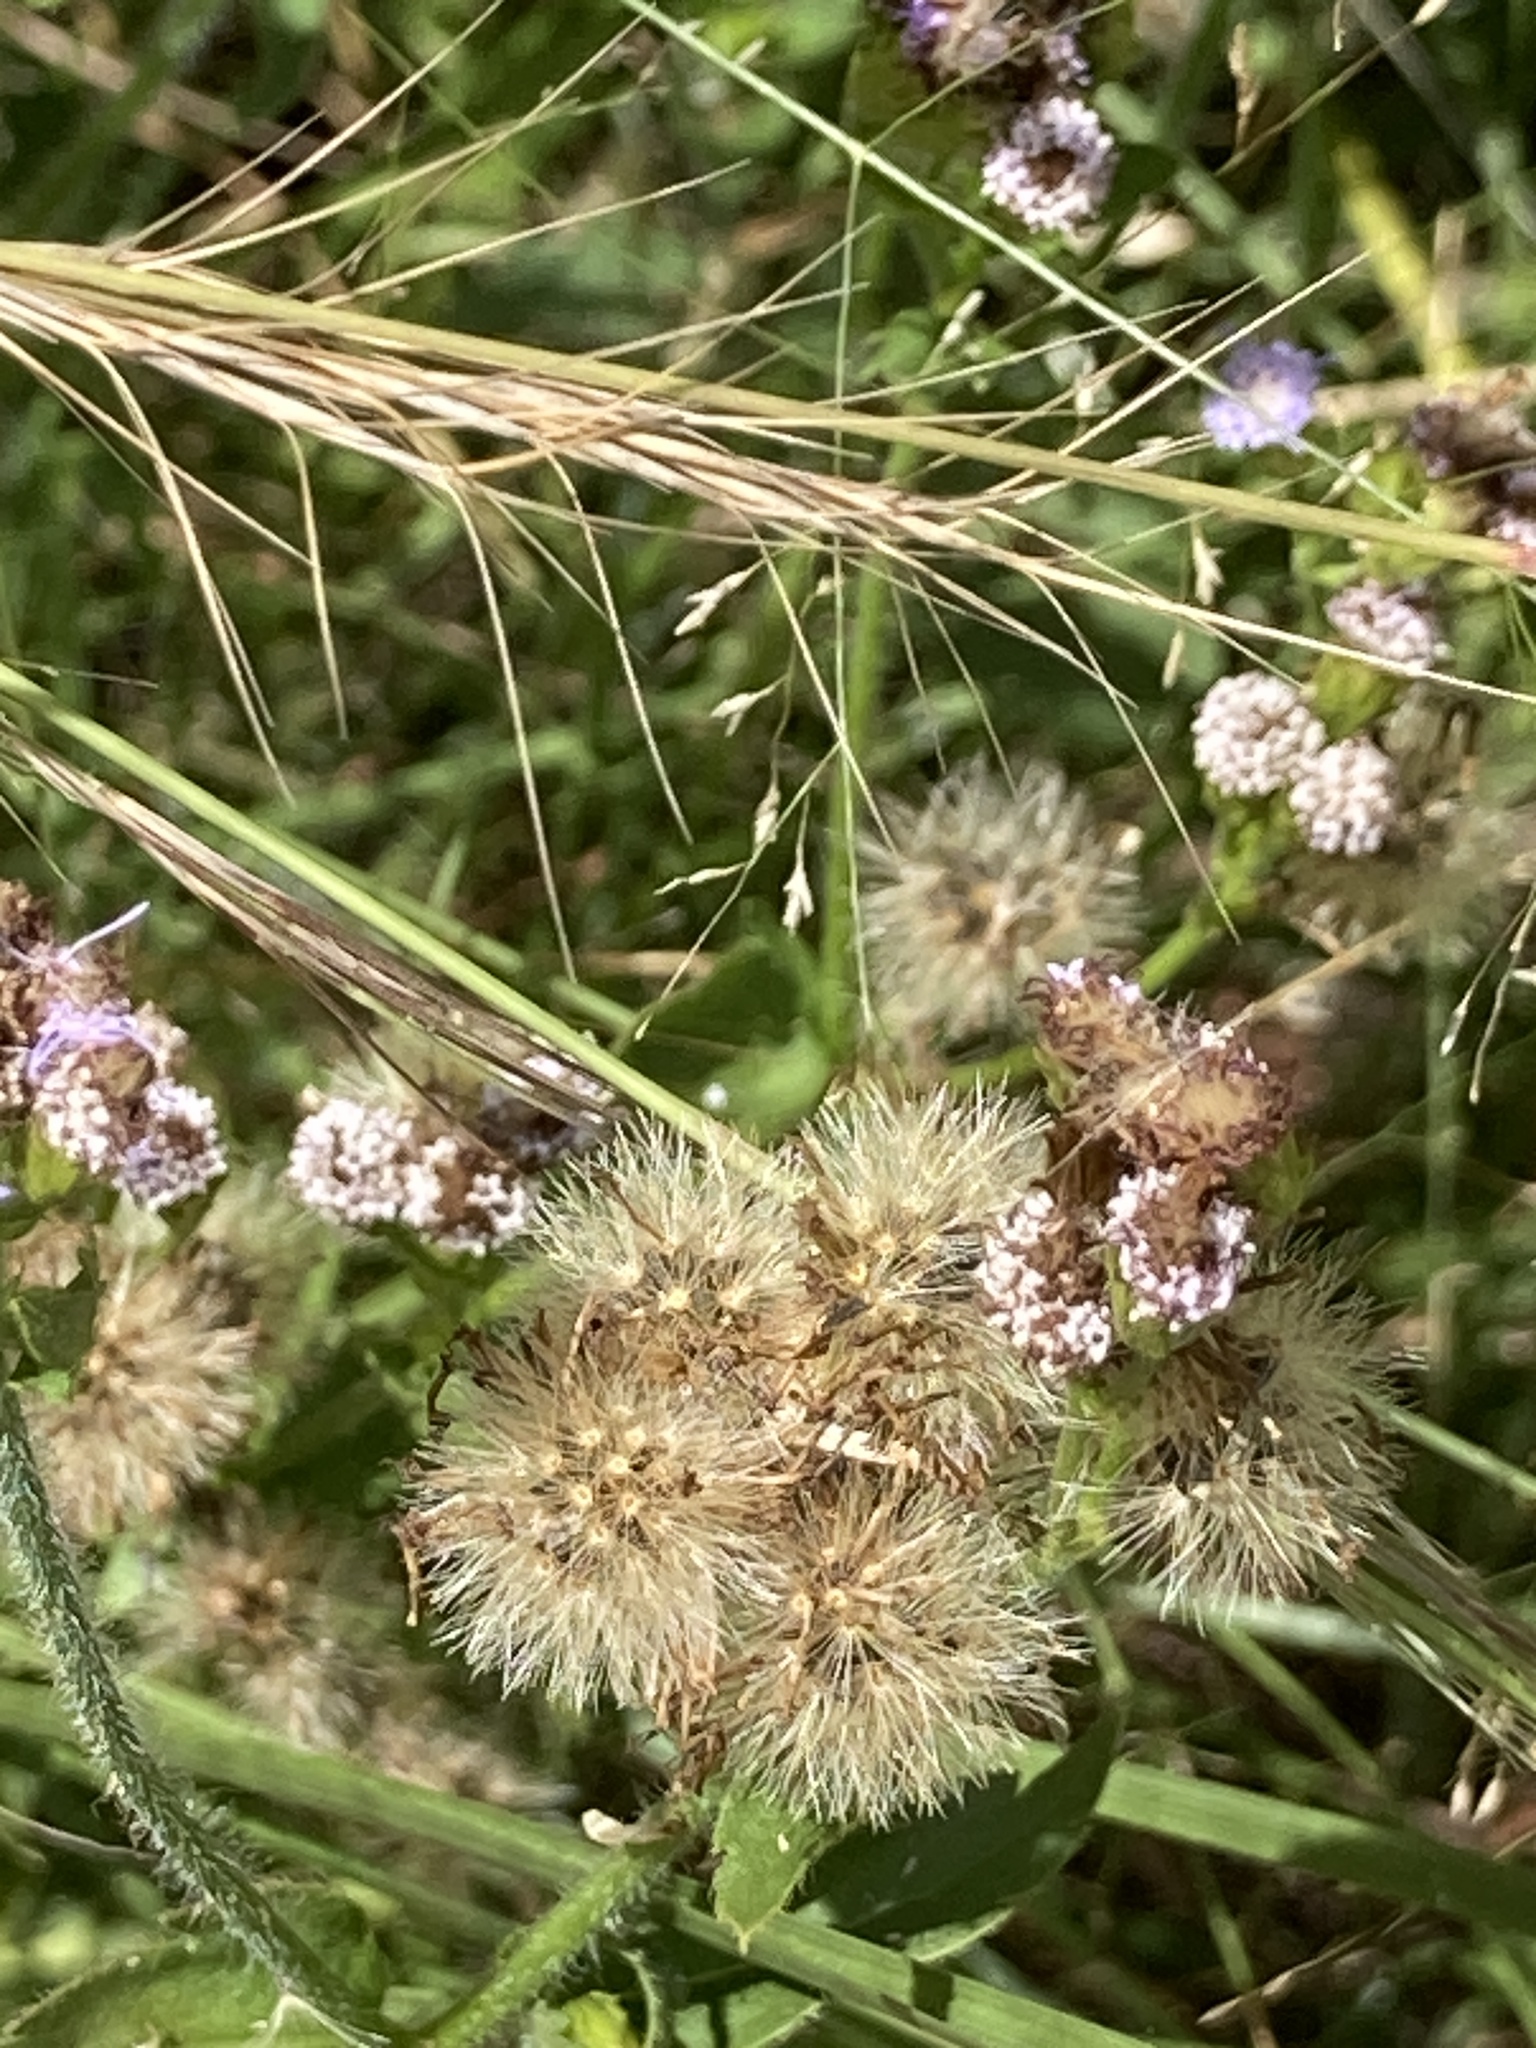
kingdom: Plantae
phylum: Tracheophyta
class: Magnoliopsida
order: Asterales
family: Asteraceae
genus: Praxelis
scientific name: Praxelis clematidea
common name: Praxelis
